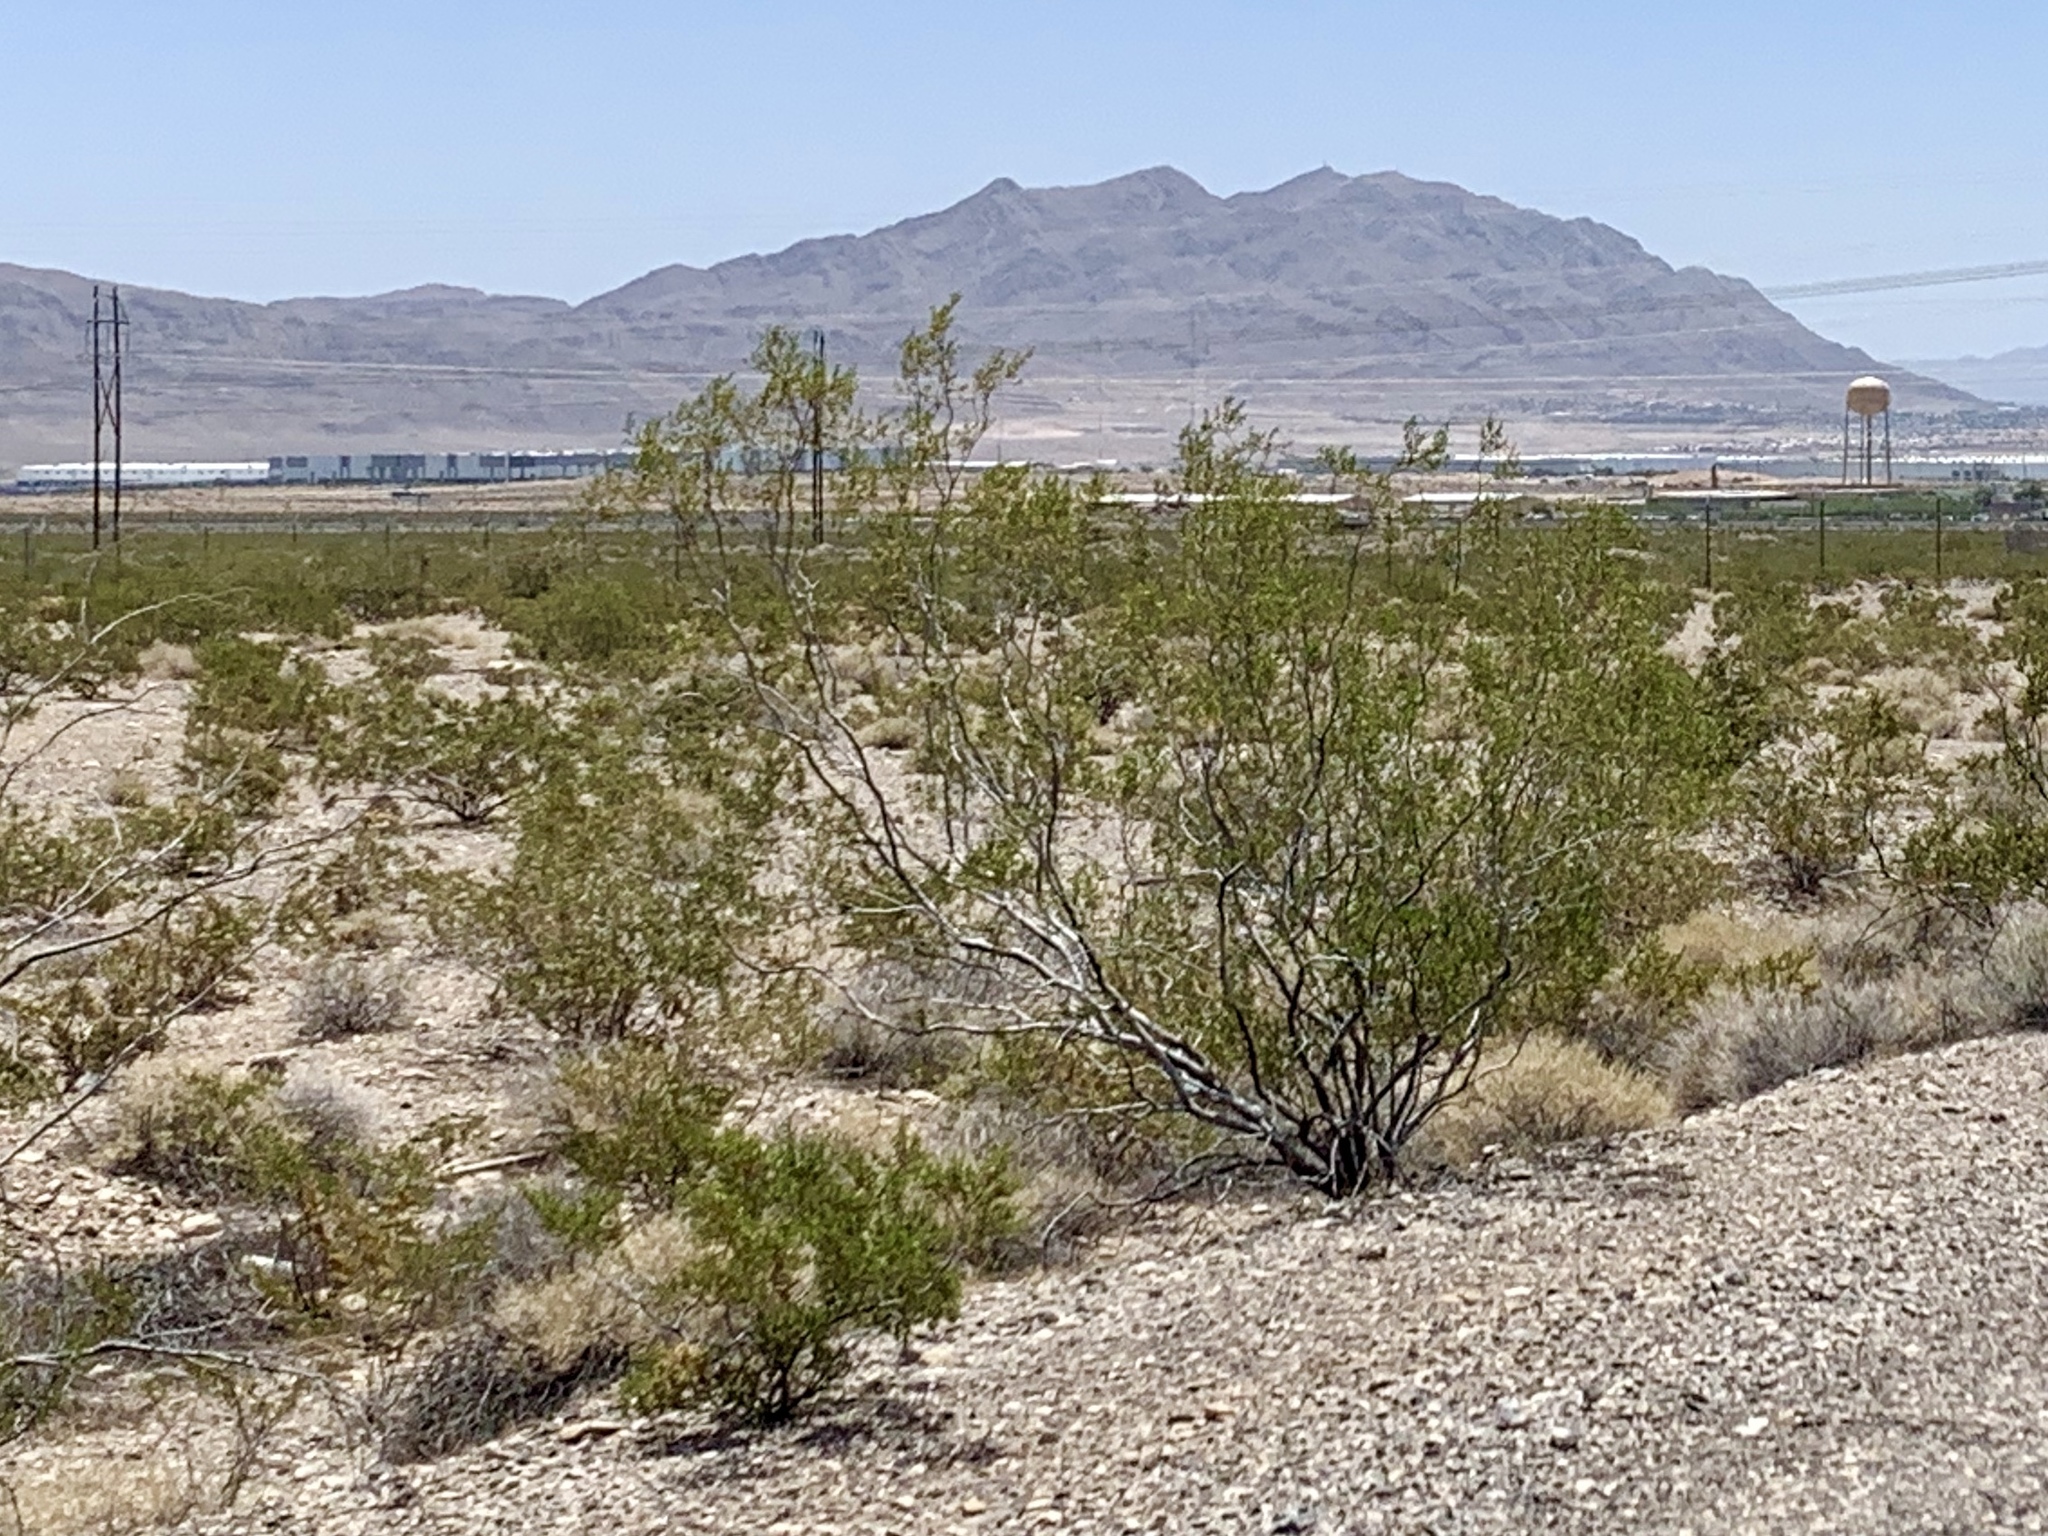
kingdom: Plantae
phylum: Tracheophyta
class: Magnoliopsida
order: Zygophyllales
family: Zygophyllaceae
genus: Larrea
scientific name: Larrea tridentata
